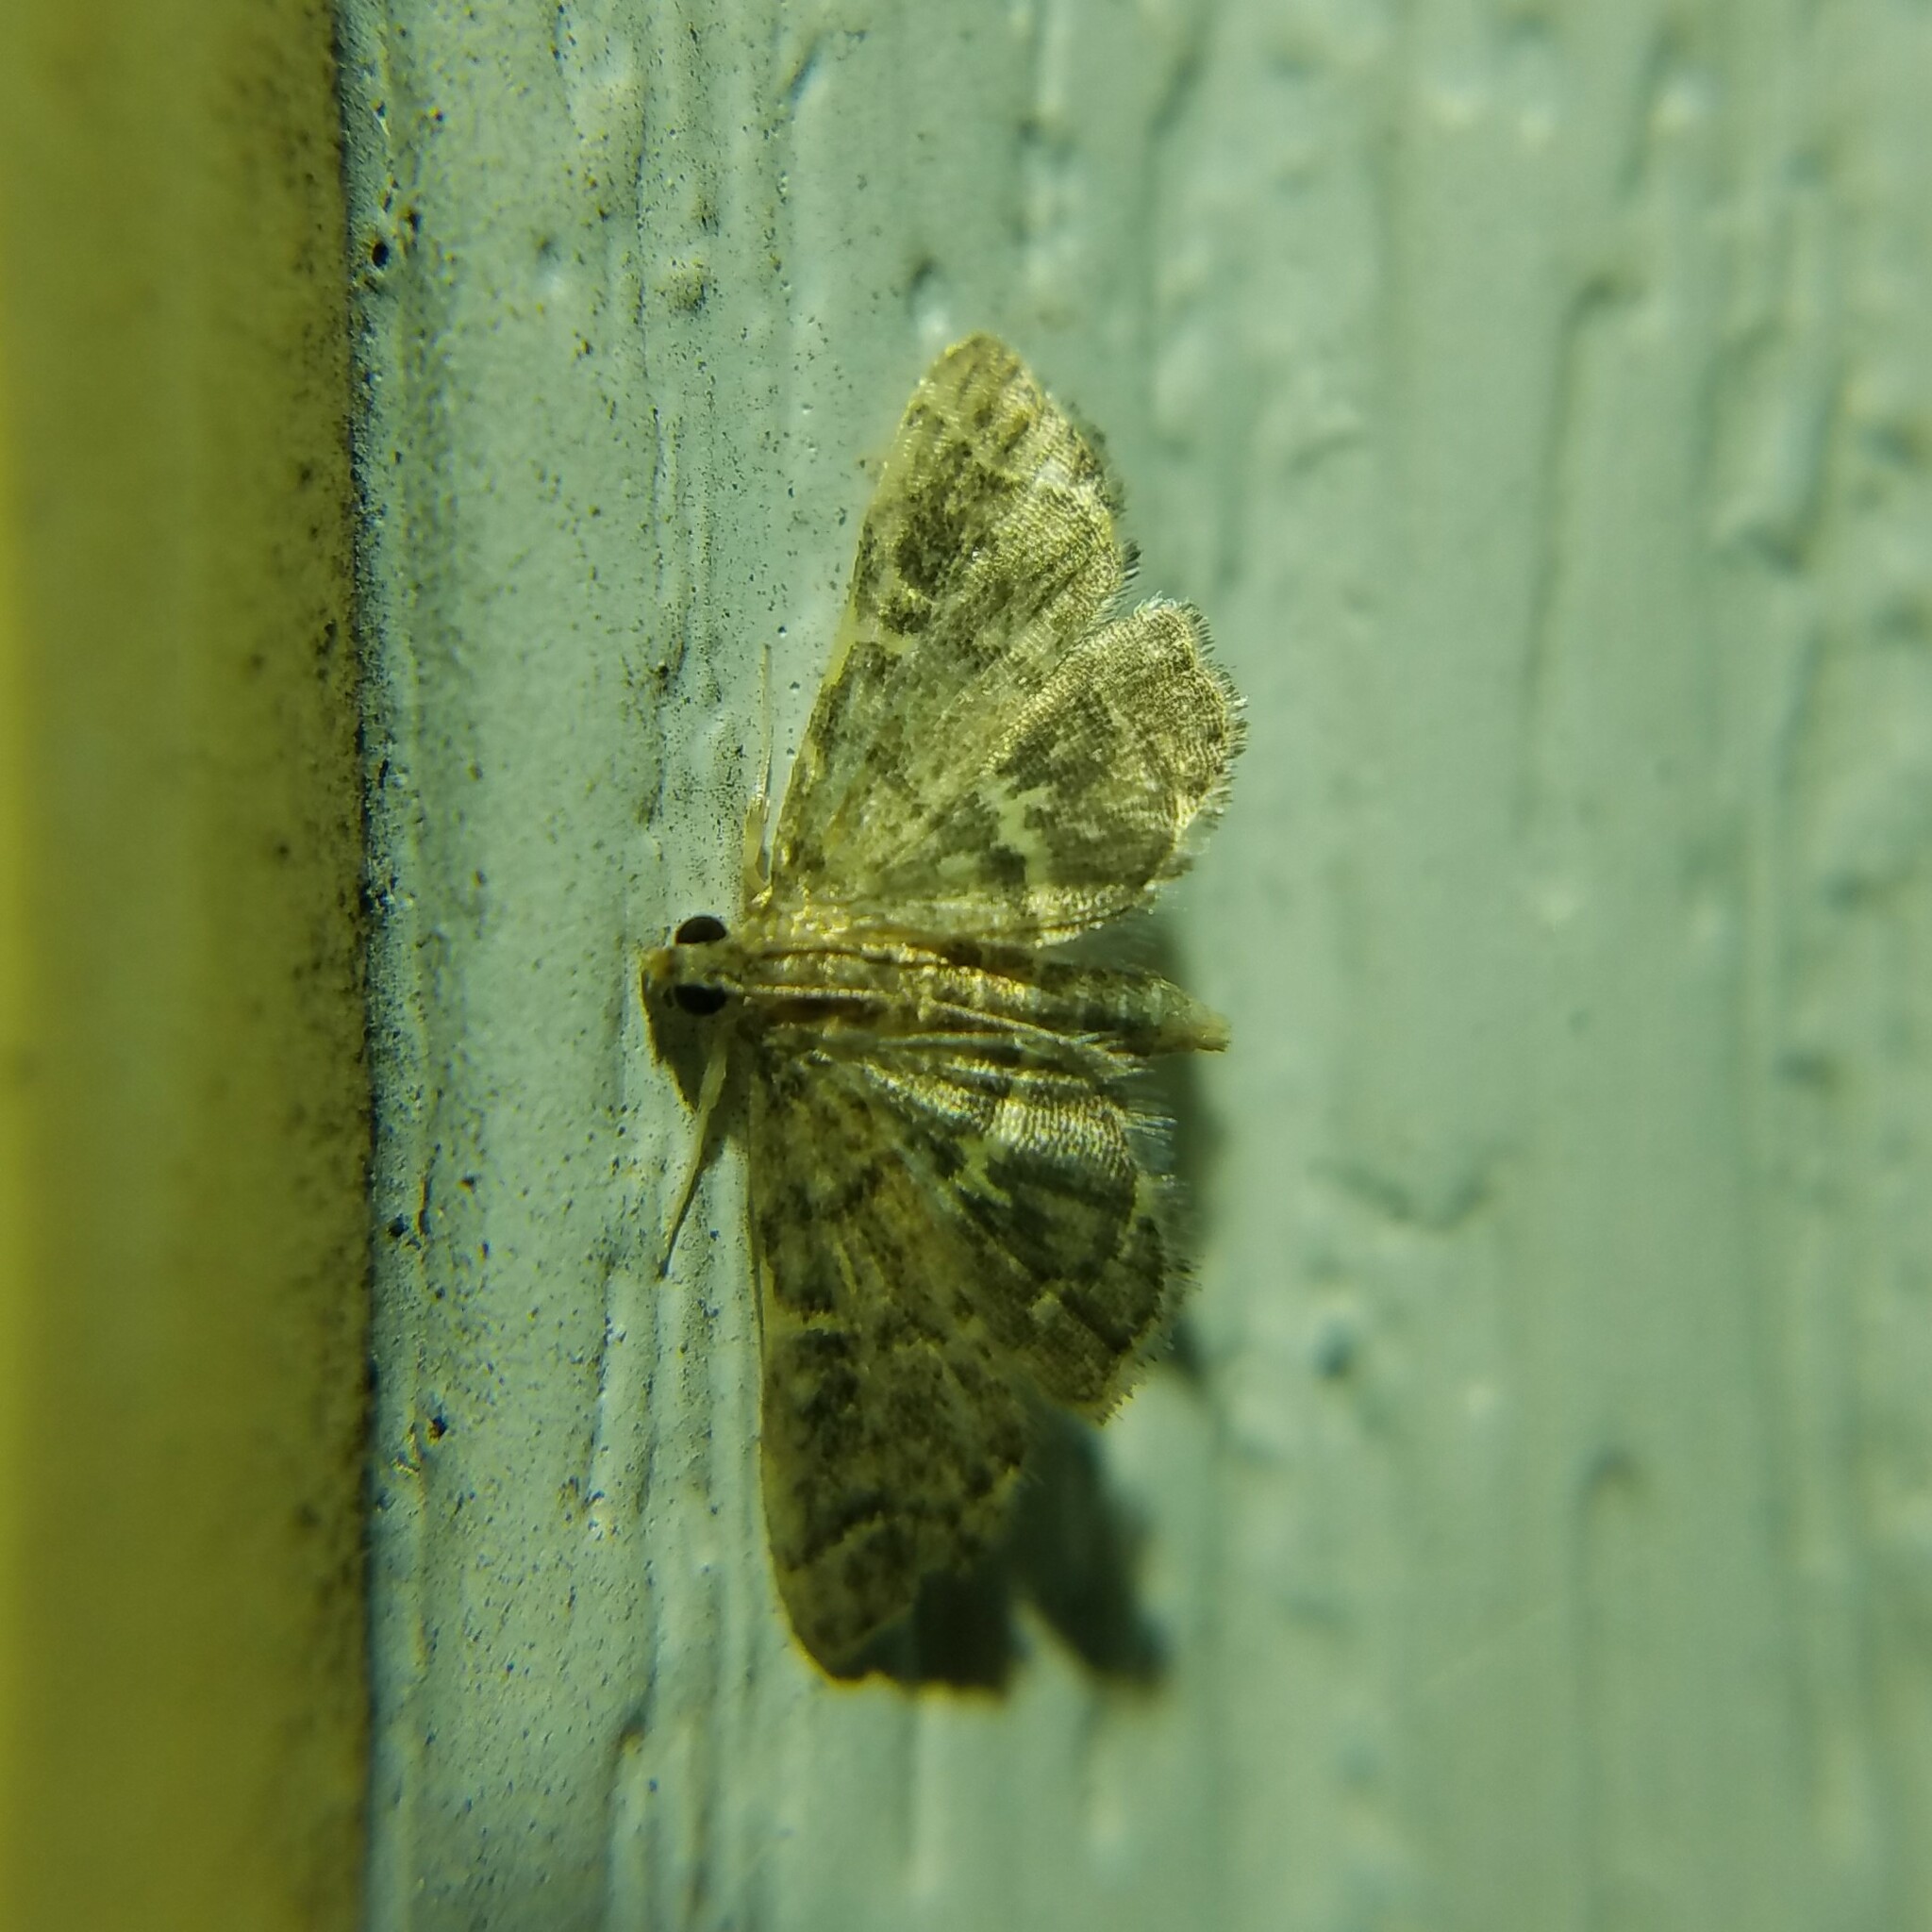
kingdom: Animalia
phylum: Arthropoda
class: Insecta
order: Lepidoptera
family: Crambidae
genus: Anageshna
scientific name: Anageshna primordialis
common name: Yellow-spotted webworm moth
